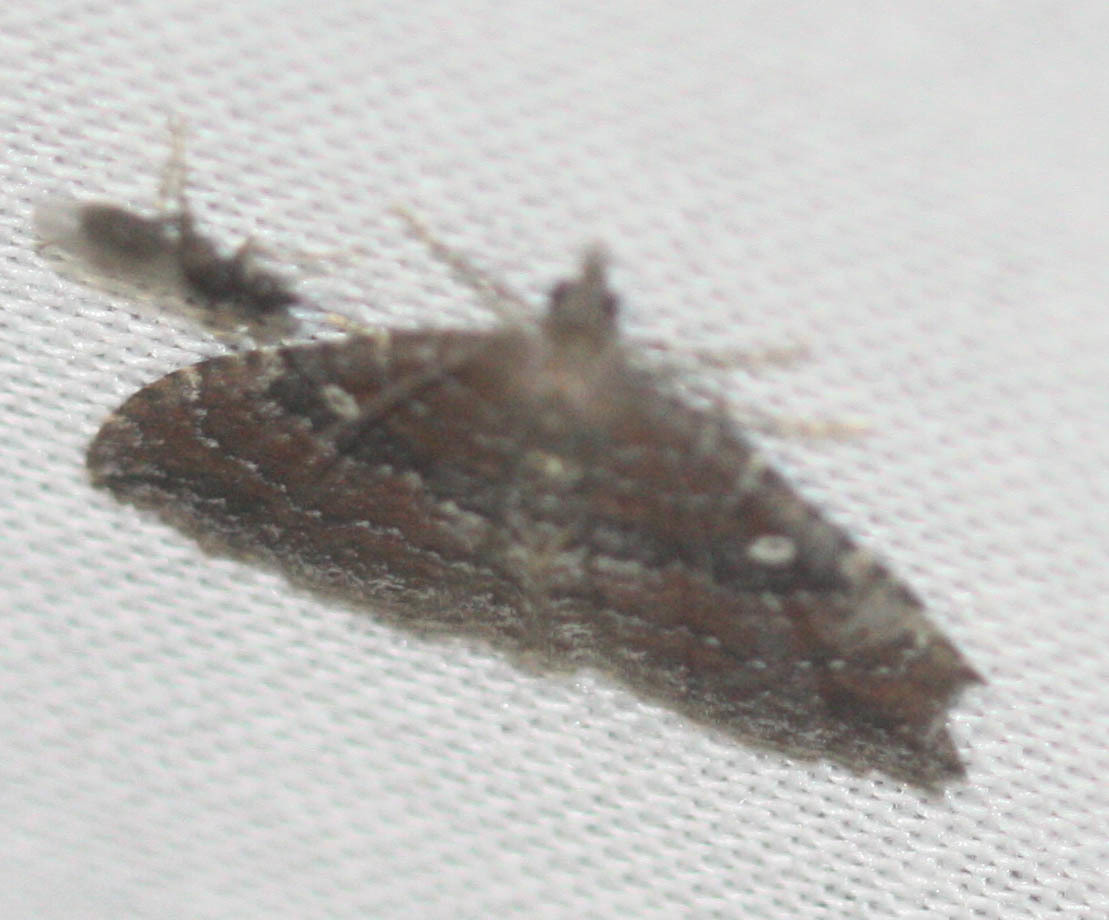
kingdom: Animalia
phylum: Arthropoda
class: Insecta
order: Lepidoptera
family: Geometridae
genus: Orthonama
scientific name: Orthonama obstipata
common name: The gem
